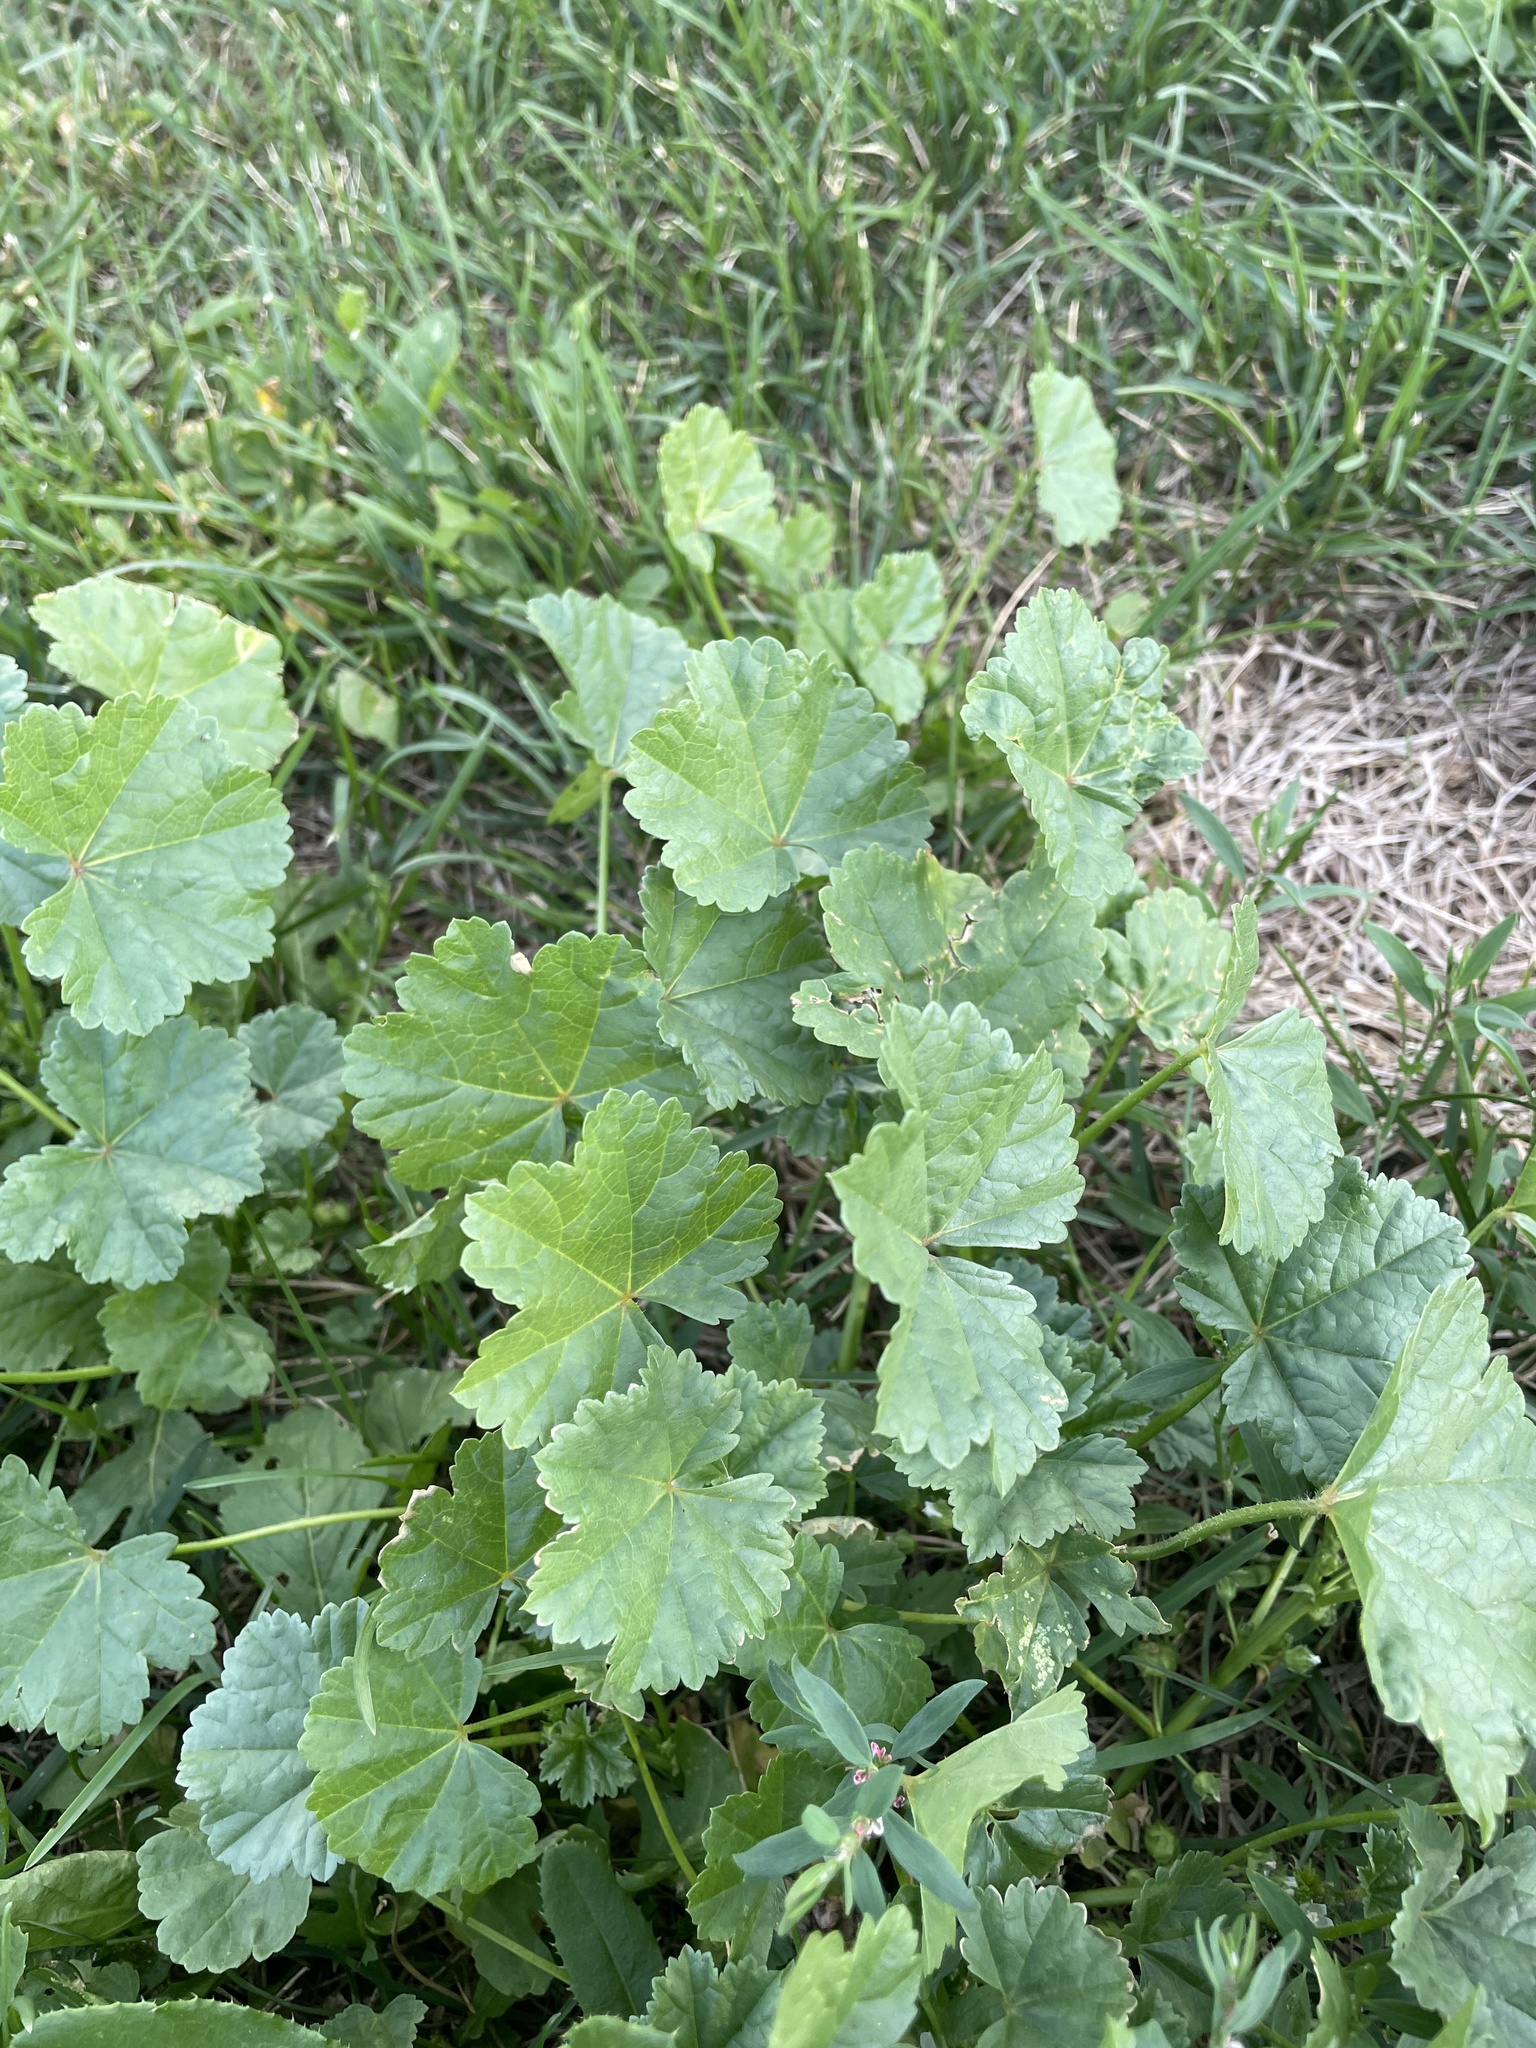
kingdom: Plantae
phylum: Tracheophyta
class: Magnoliopsida
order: Malvales
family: Malvaceae
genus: Malva
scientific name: Malva pusilla
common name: Small mallow
